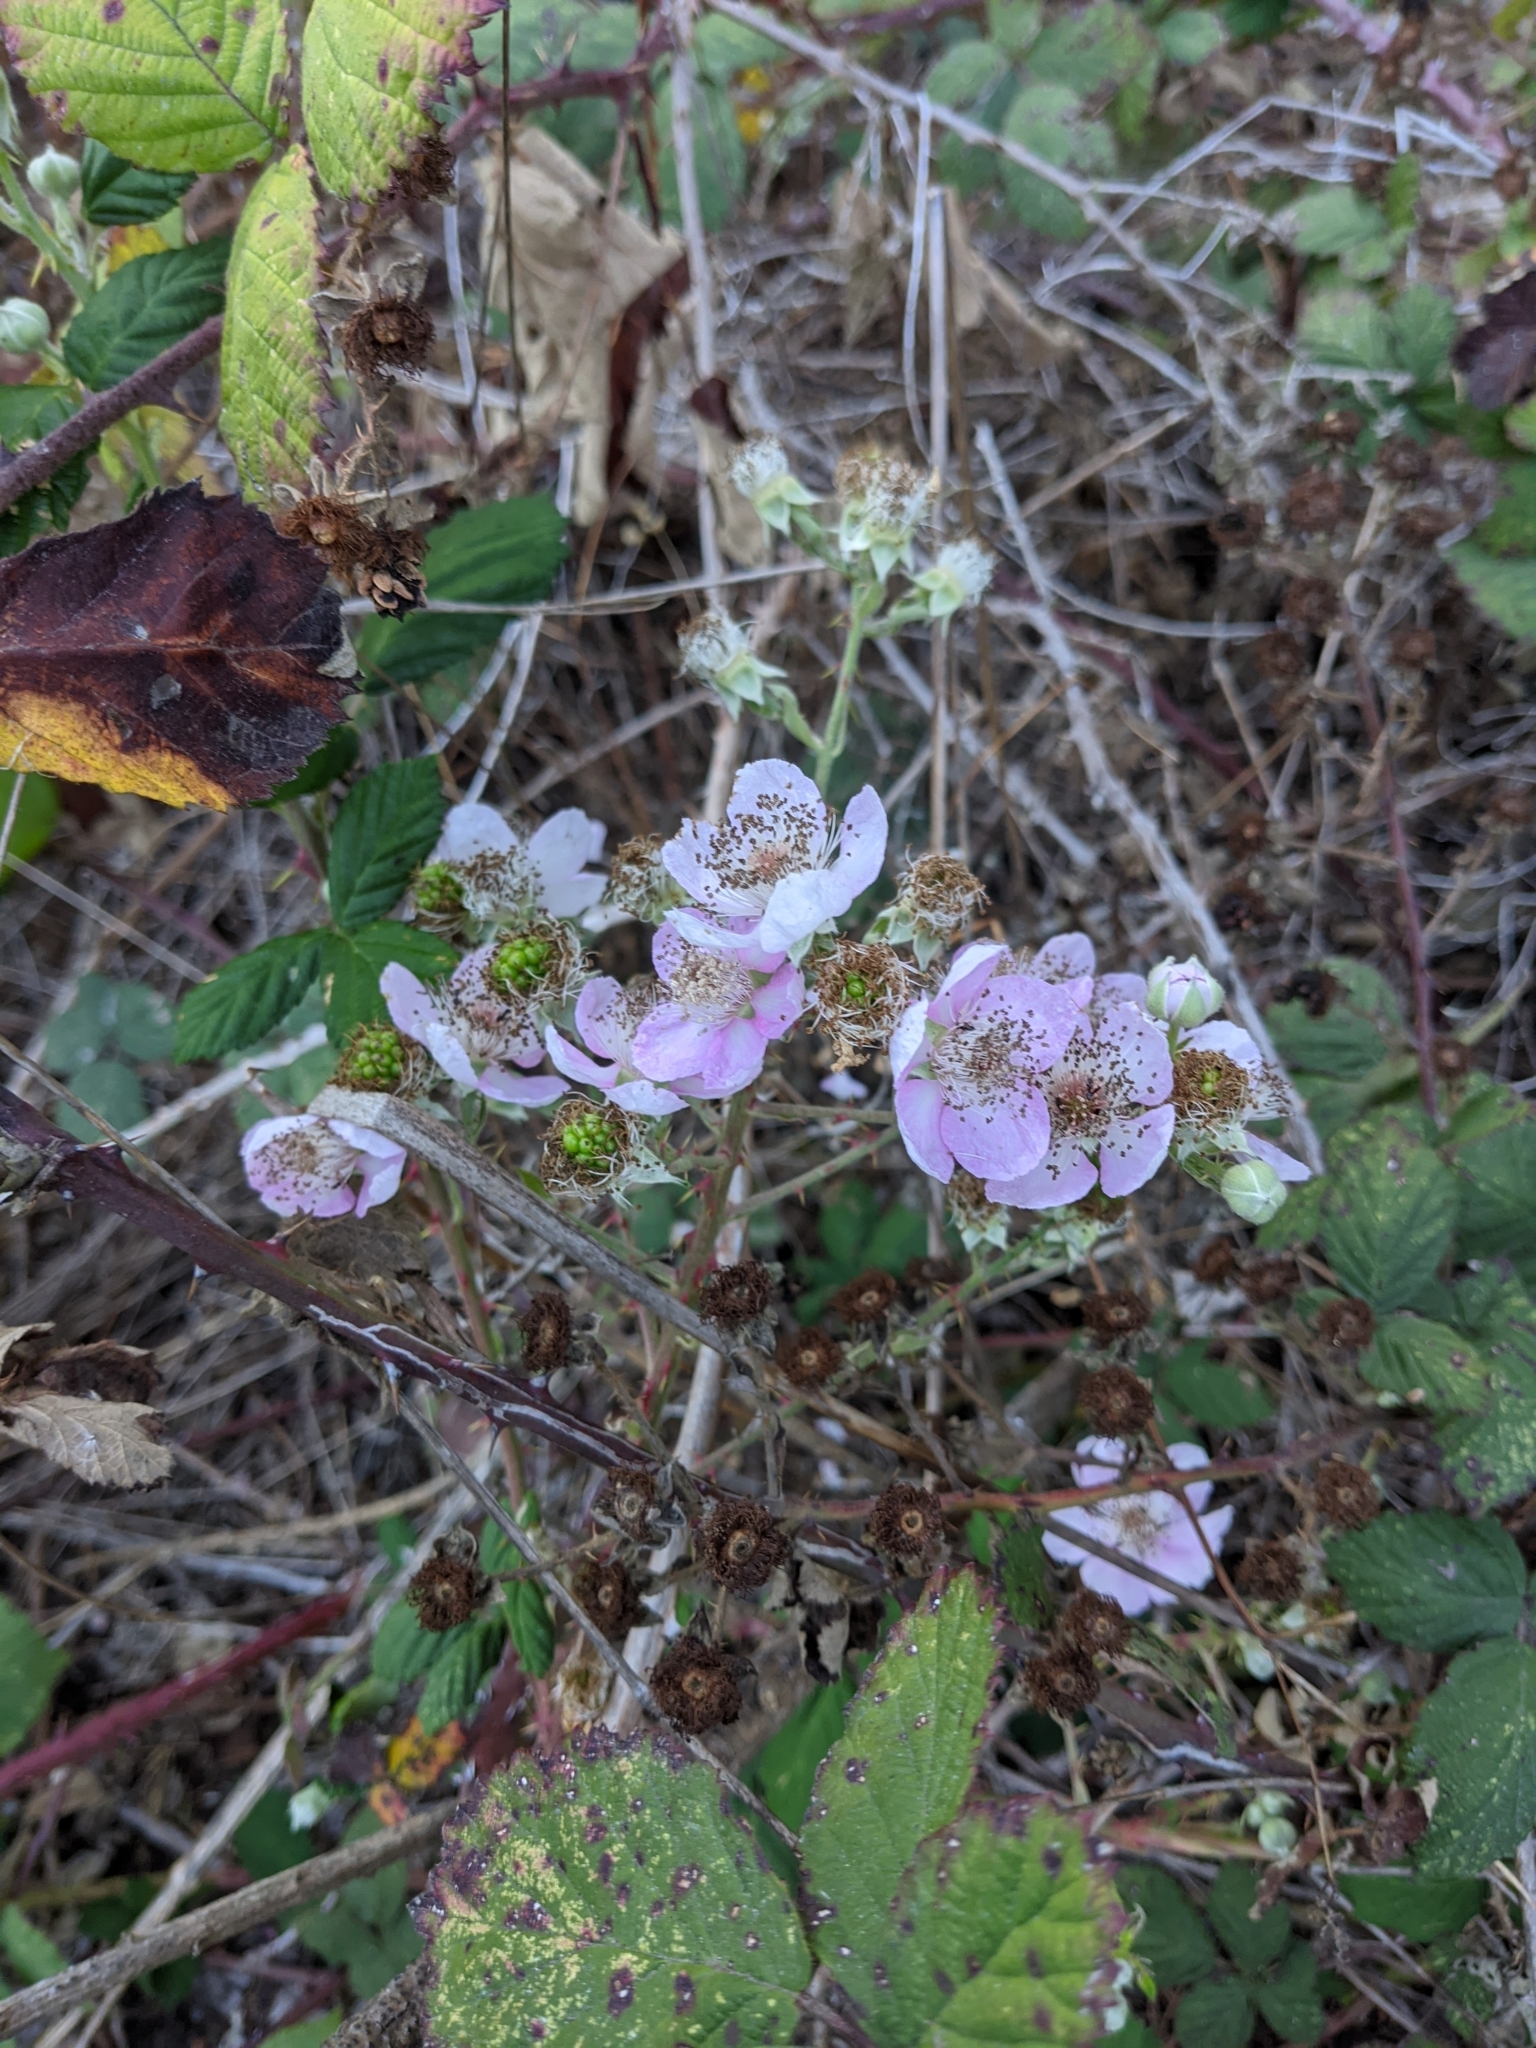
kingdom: Plantae
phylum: Tracheophyta
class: Magnoliopsida
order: Rosales
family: Rosaceae
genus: Rubus
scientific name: Rubus armeniacus
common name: Himalayan blackberry
